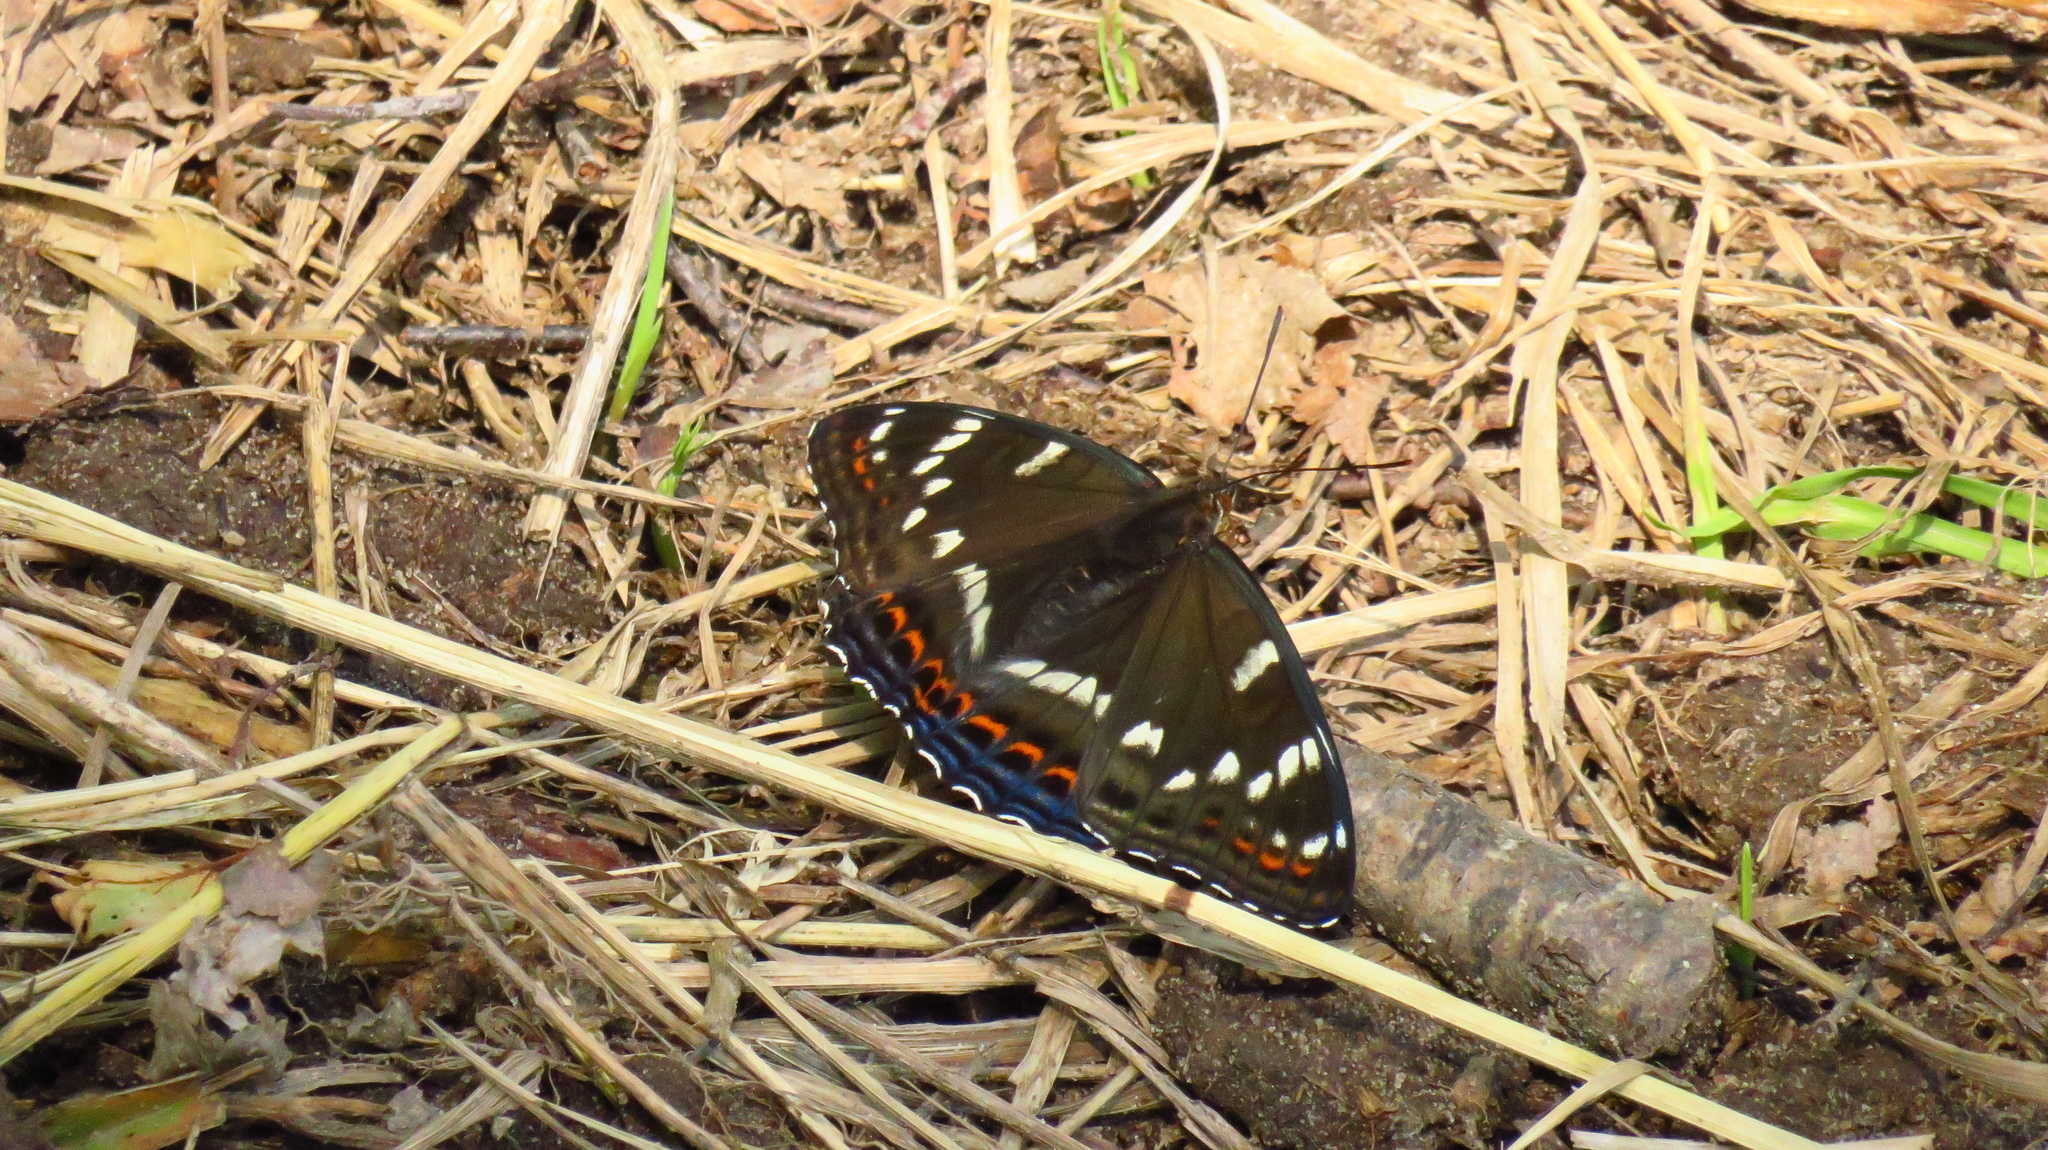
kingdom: Animalia
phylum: Arthropoda
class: Insecta
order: Lepidoptera
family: Nymphalidae
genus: Limenitis
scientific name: Limenitis populi
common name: Poplar admiral
